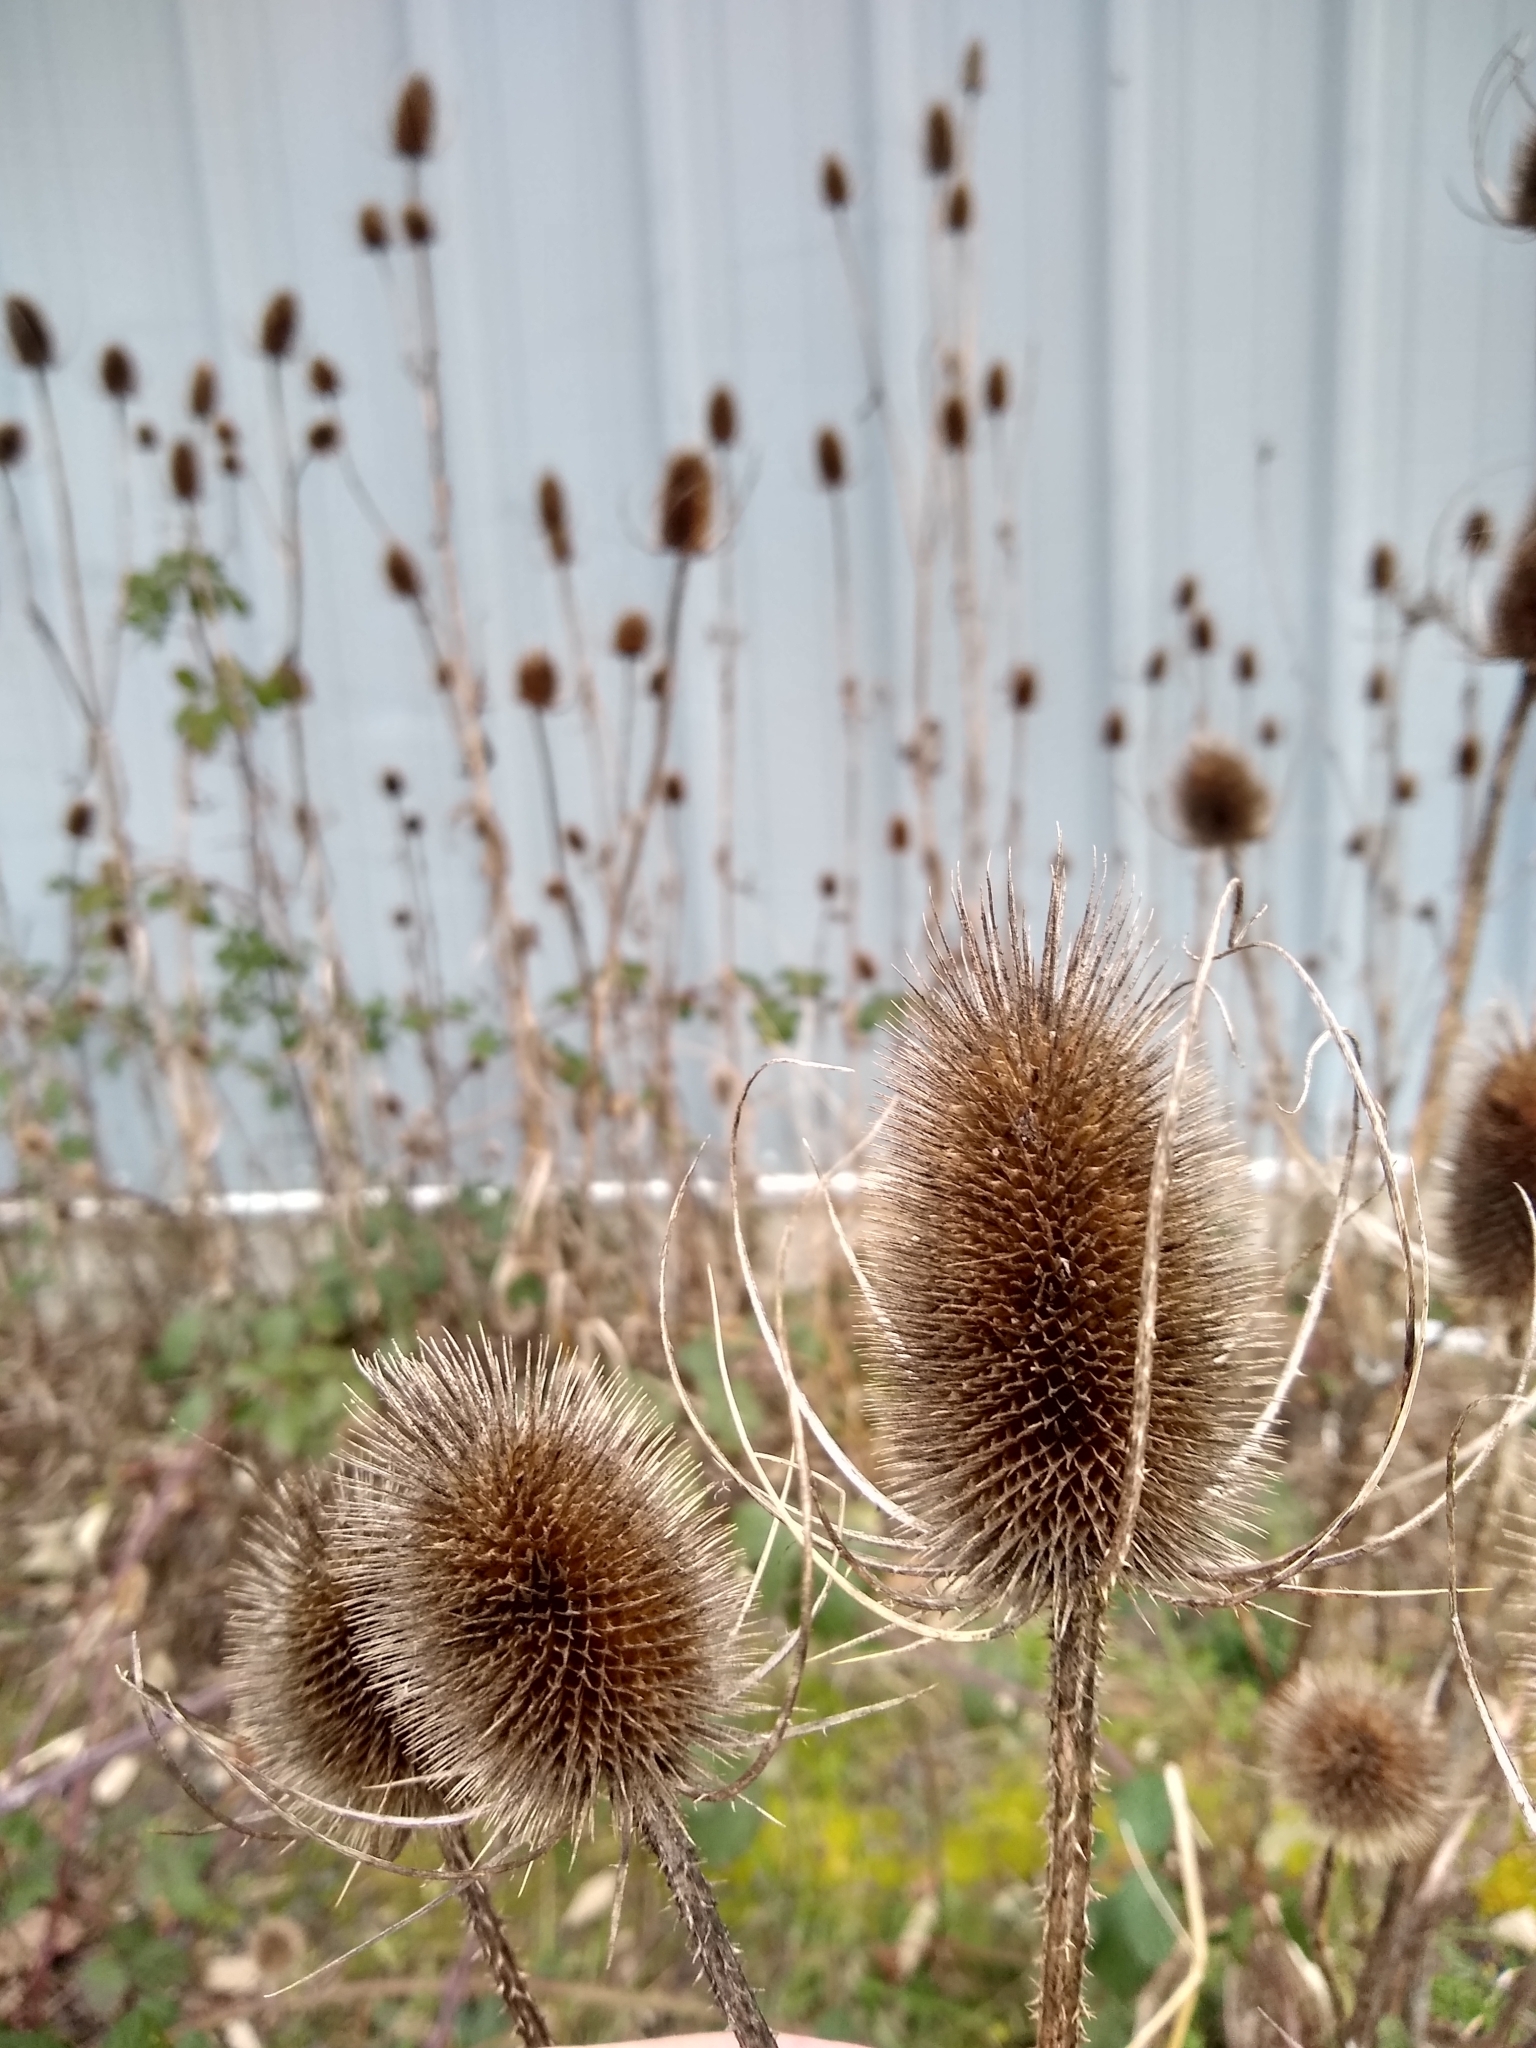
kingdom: Plantae
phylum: Tracheophyta
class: Magnoliopsida
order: Dipsacales
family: Caprifoliaceae
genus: Dipsacus
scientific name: Dipsacus fullonum
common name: Teasel
